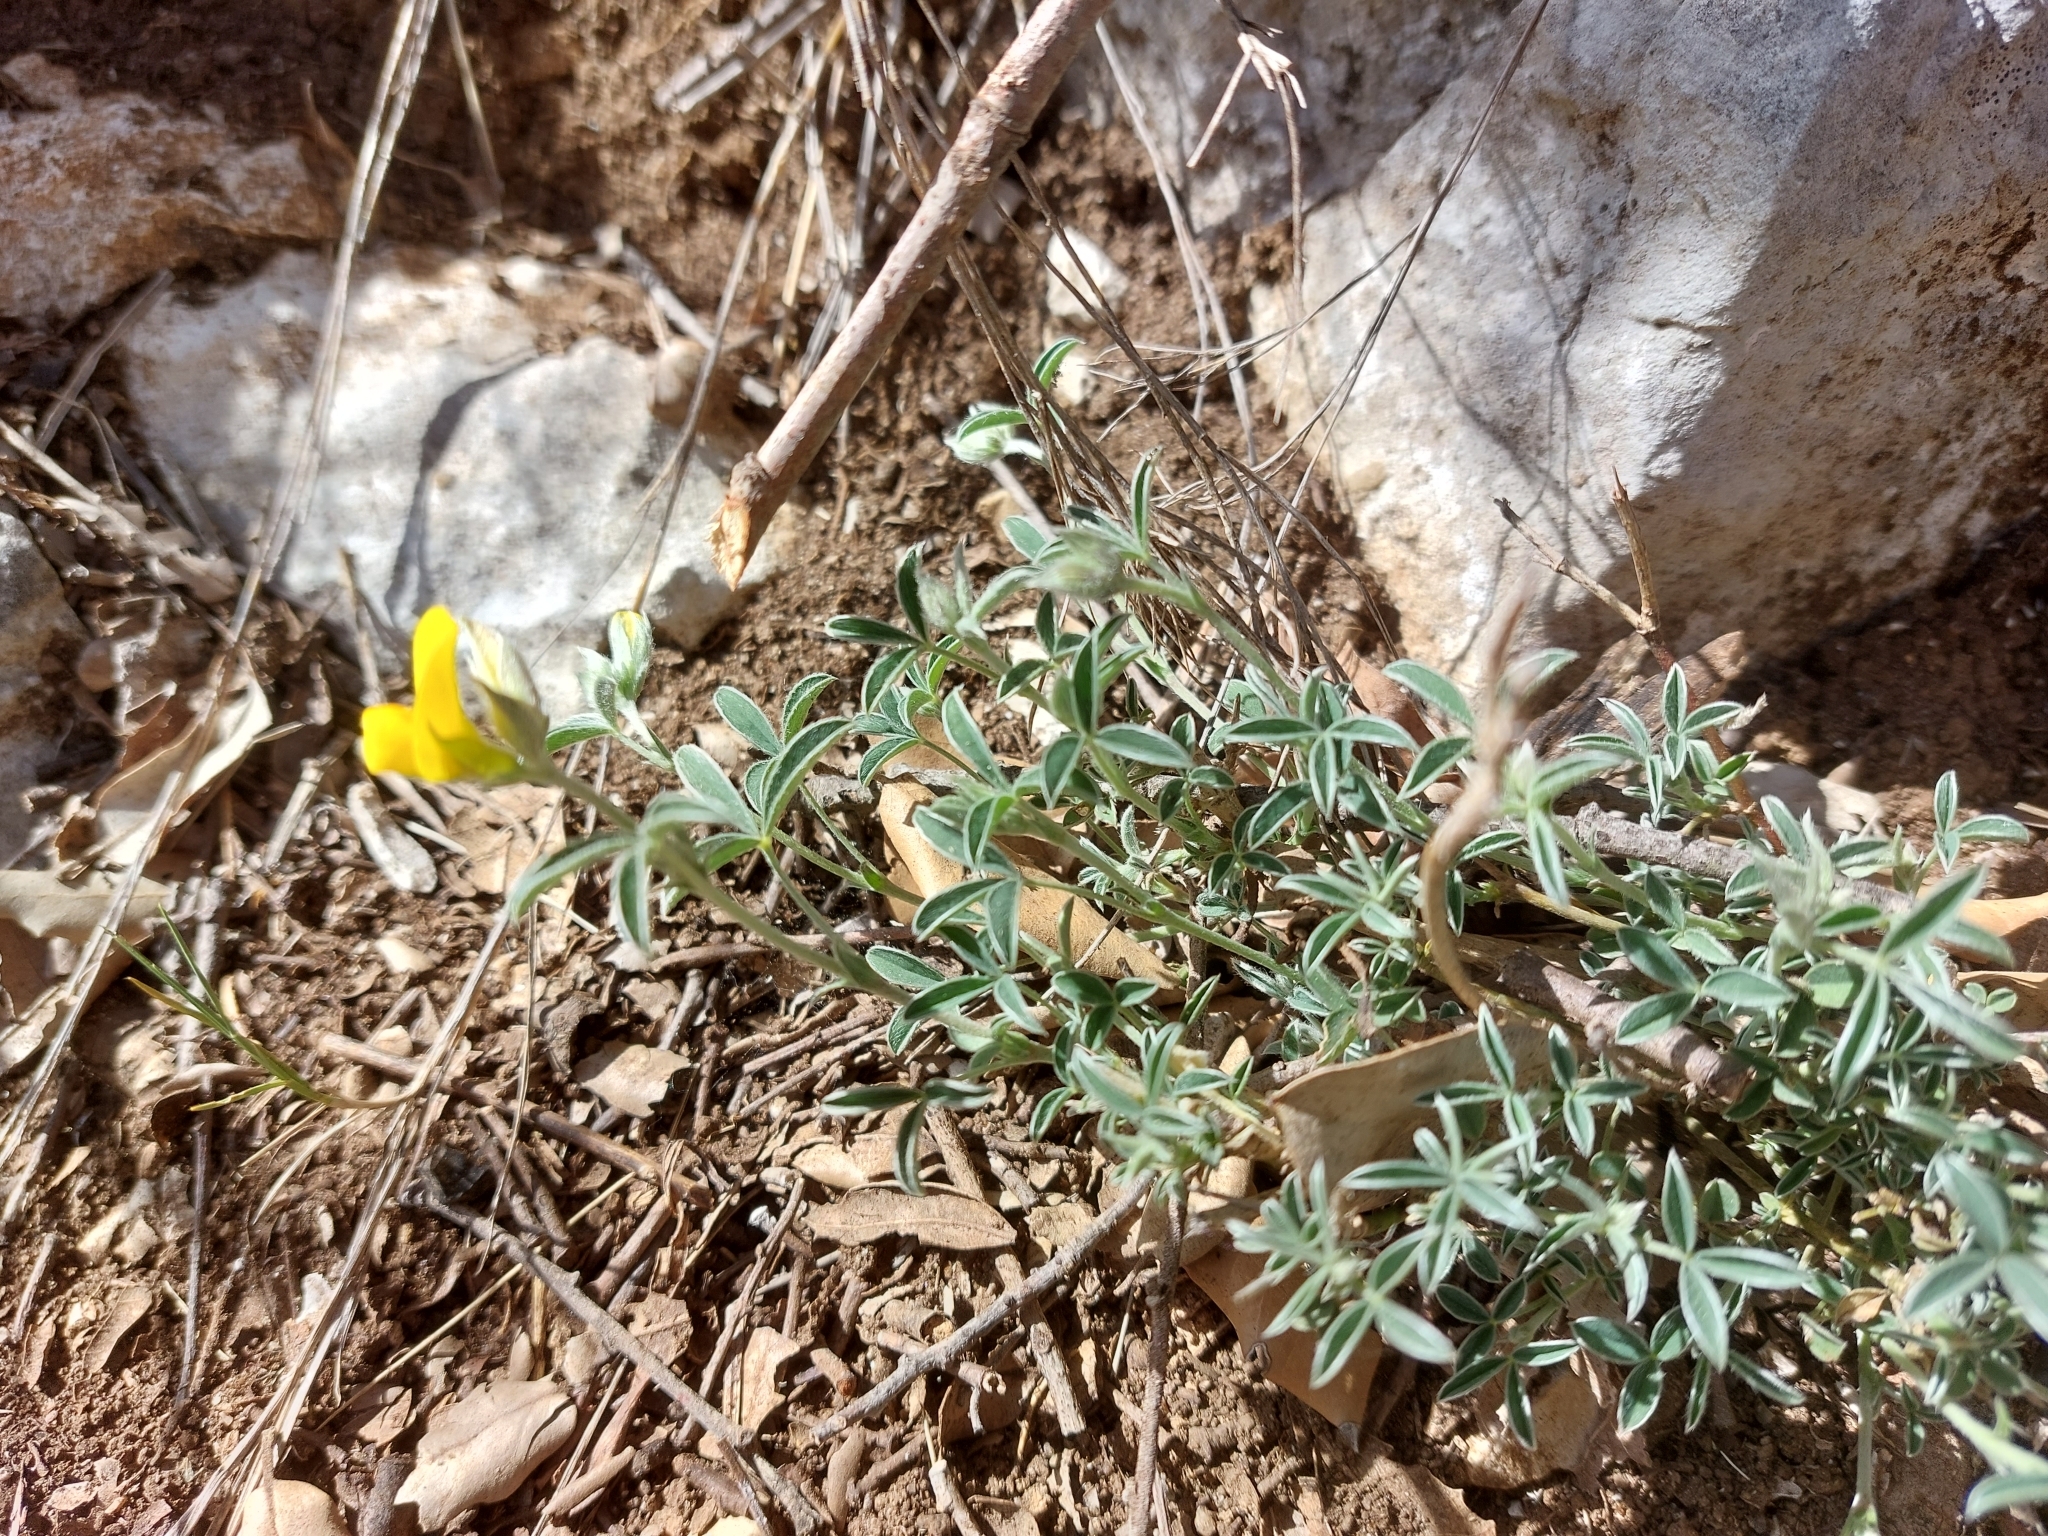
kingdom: Plantae
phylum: Tracheophyta
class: Magnoliopsida
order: Fabales
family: Fabaceae
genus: Argyrolobium
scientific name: Argyrolobium zanonii
